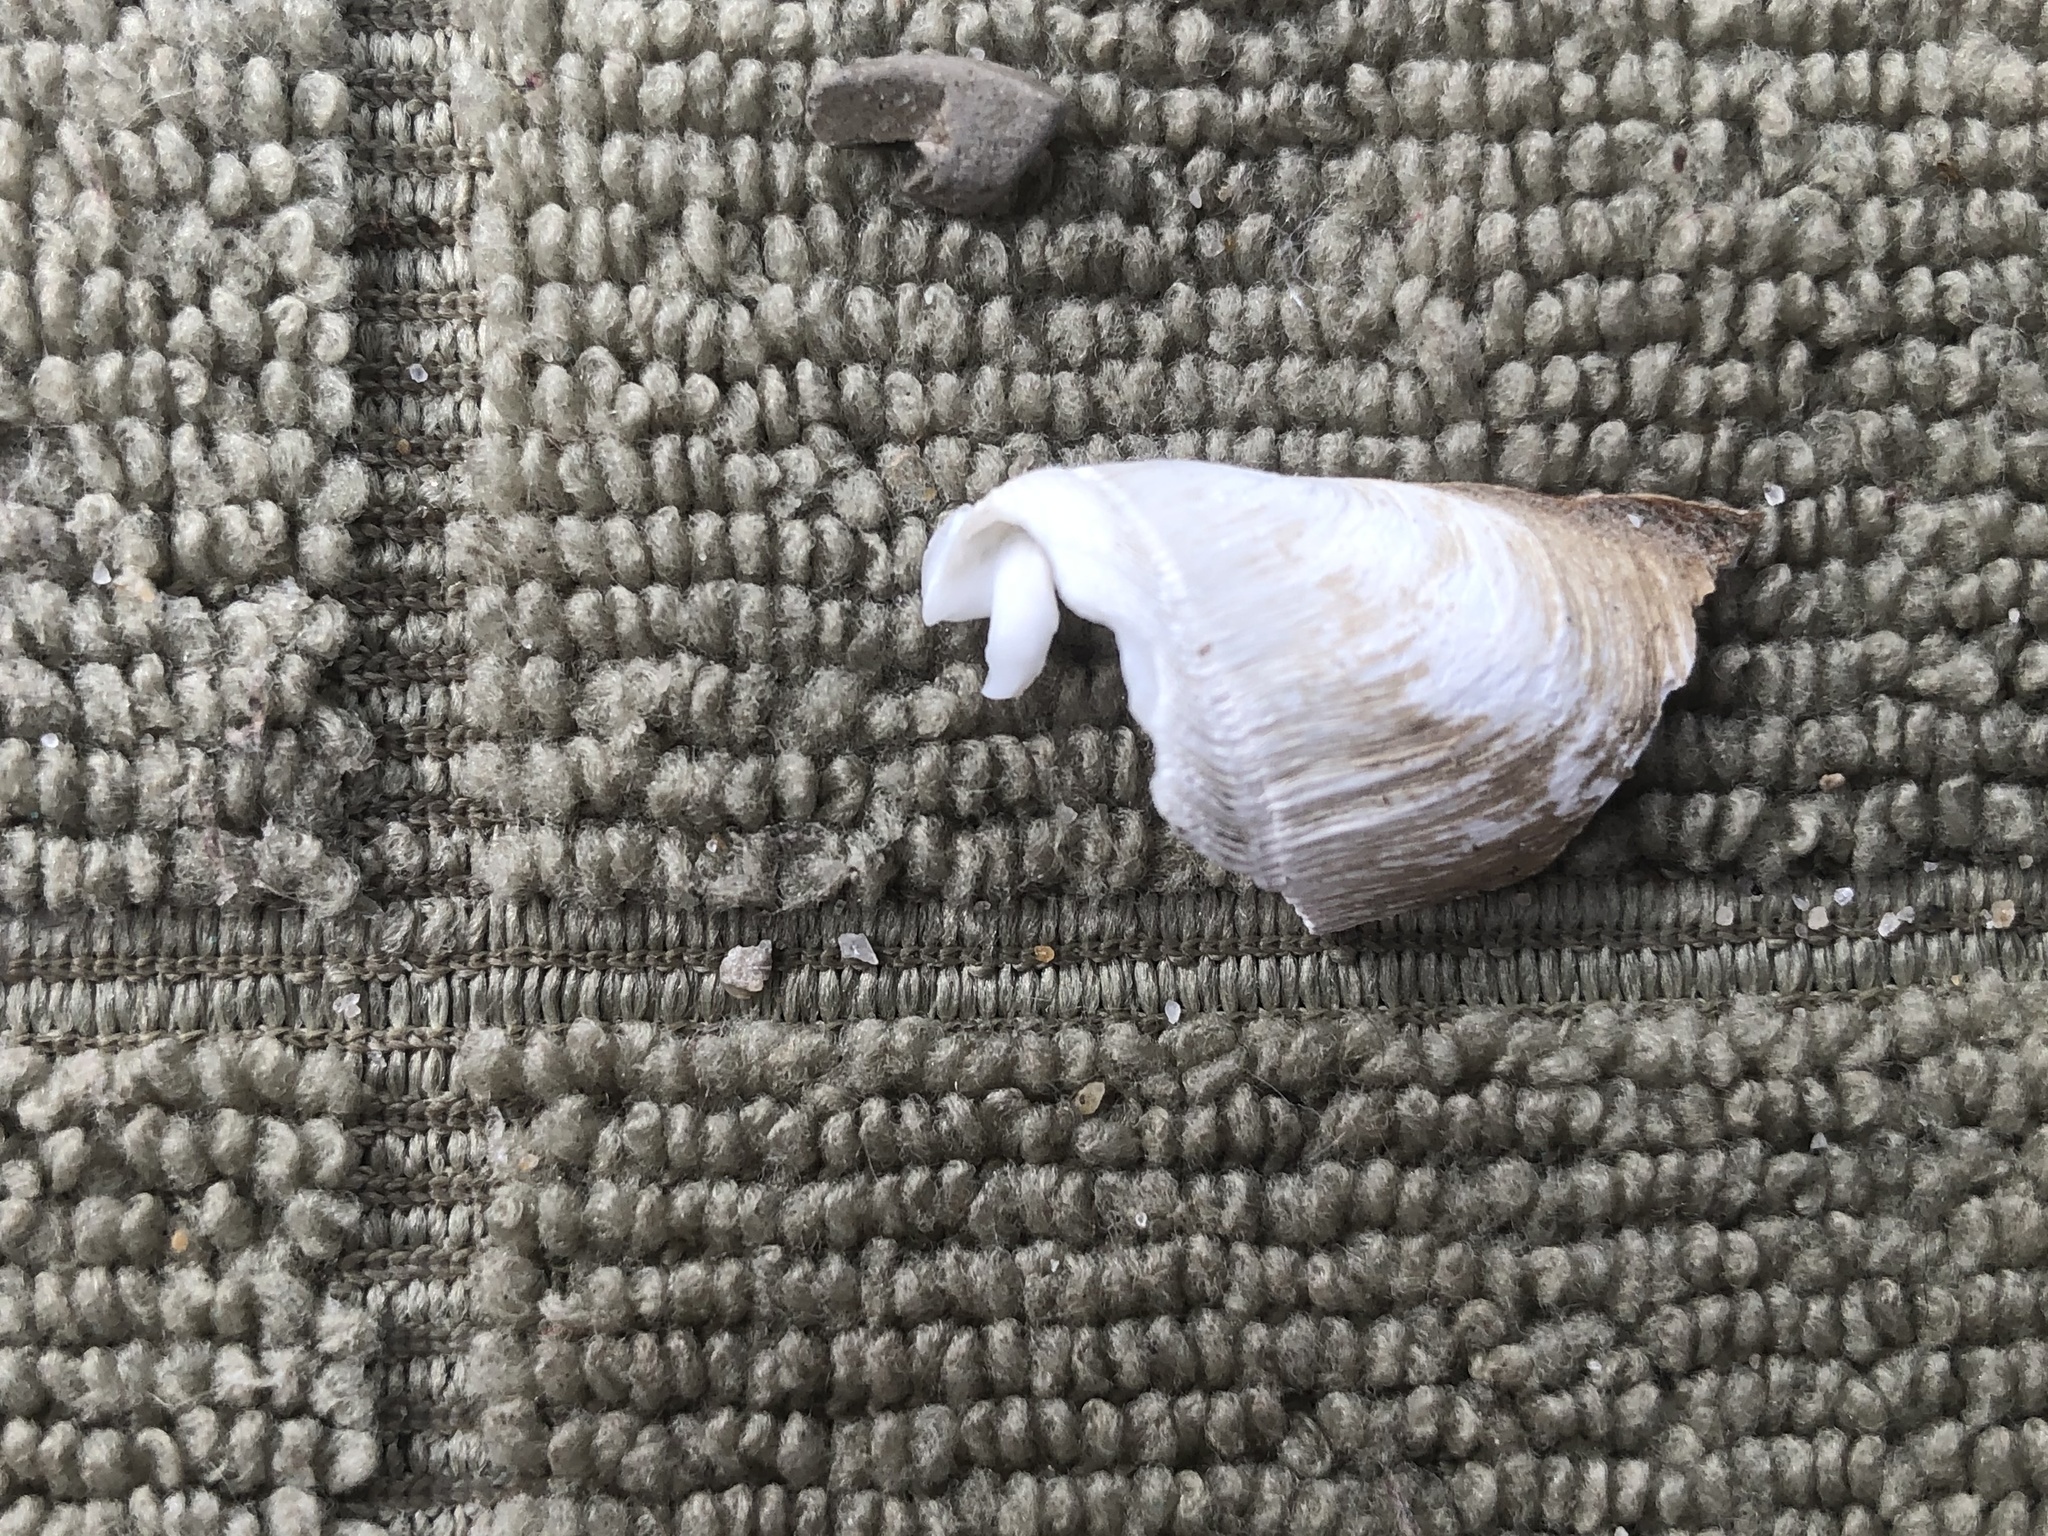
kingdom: Animalia
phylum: Mollusca
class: Bivalvia
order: Myida
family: Pholadidae
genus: Parapholas
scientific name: Parapholas californica
